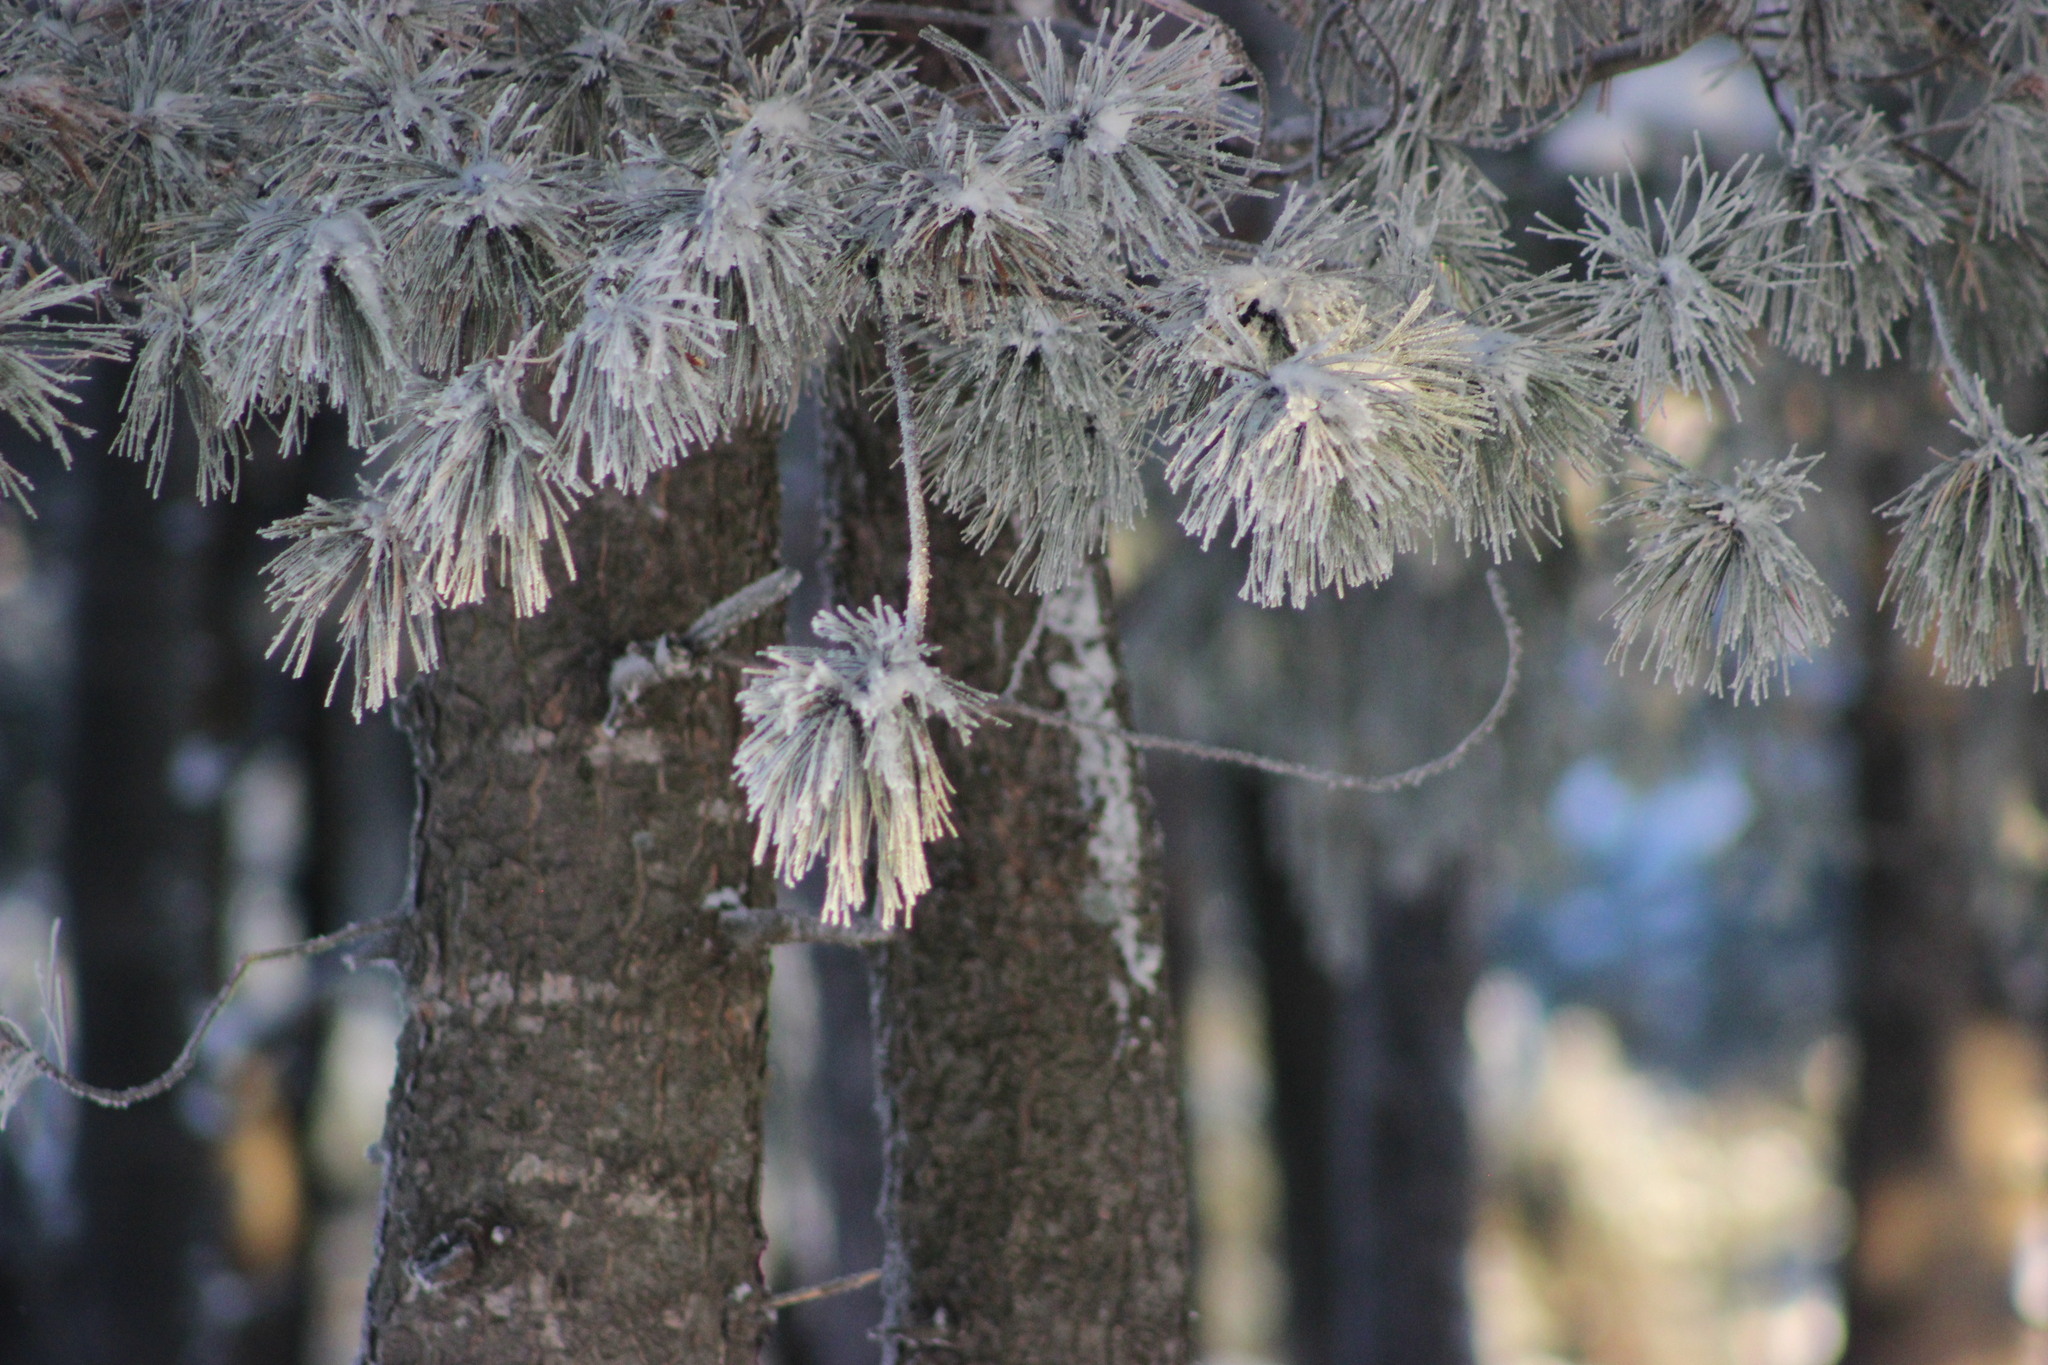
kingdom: Plantae
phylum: Tracheophyta
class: Pinopsida
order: Pinales
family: Pinaceae
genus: Pinus
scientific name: Pinus sibirica
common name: Siberian pine
